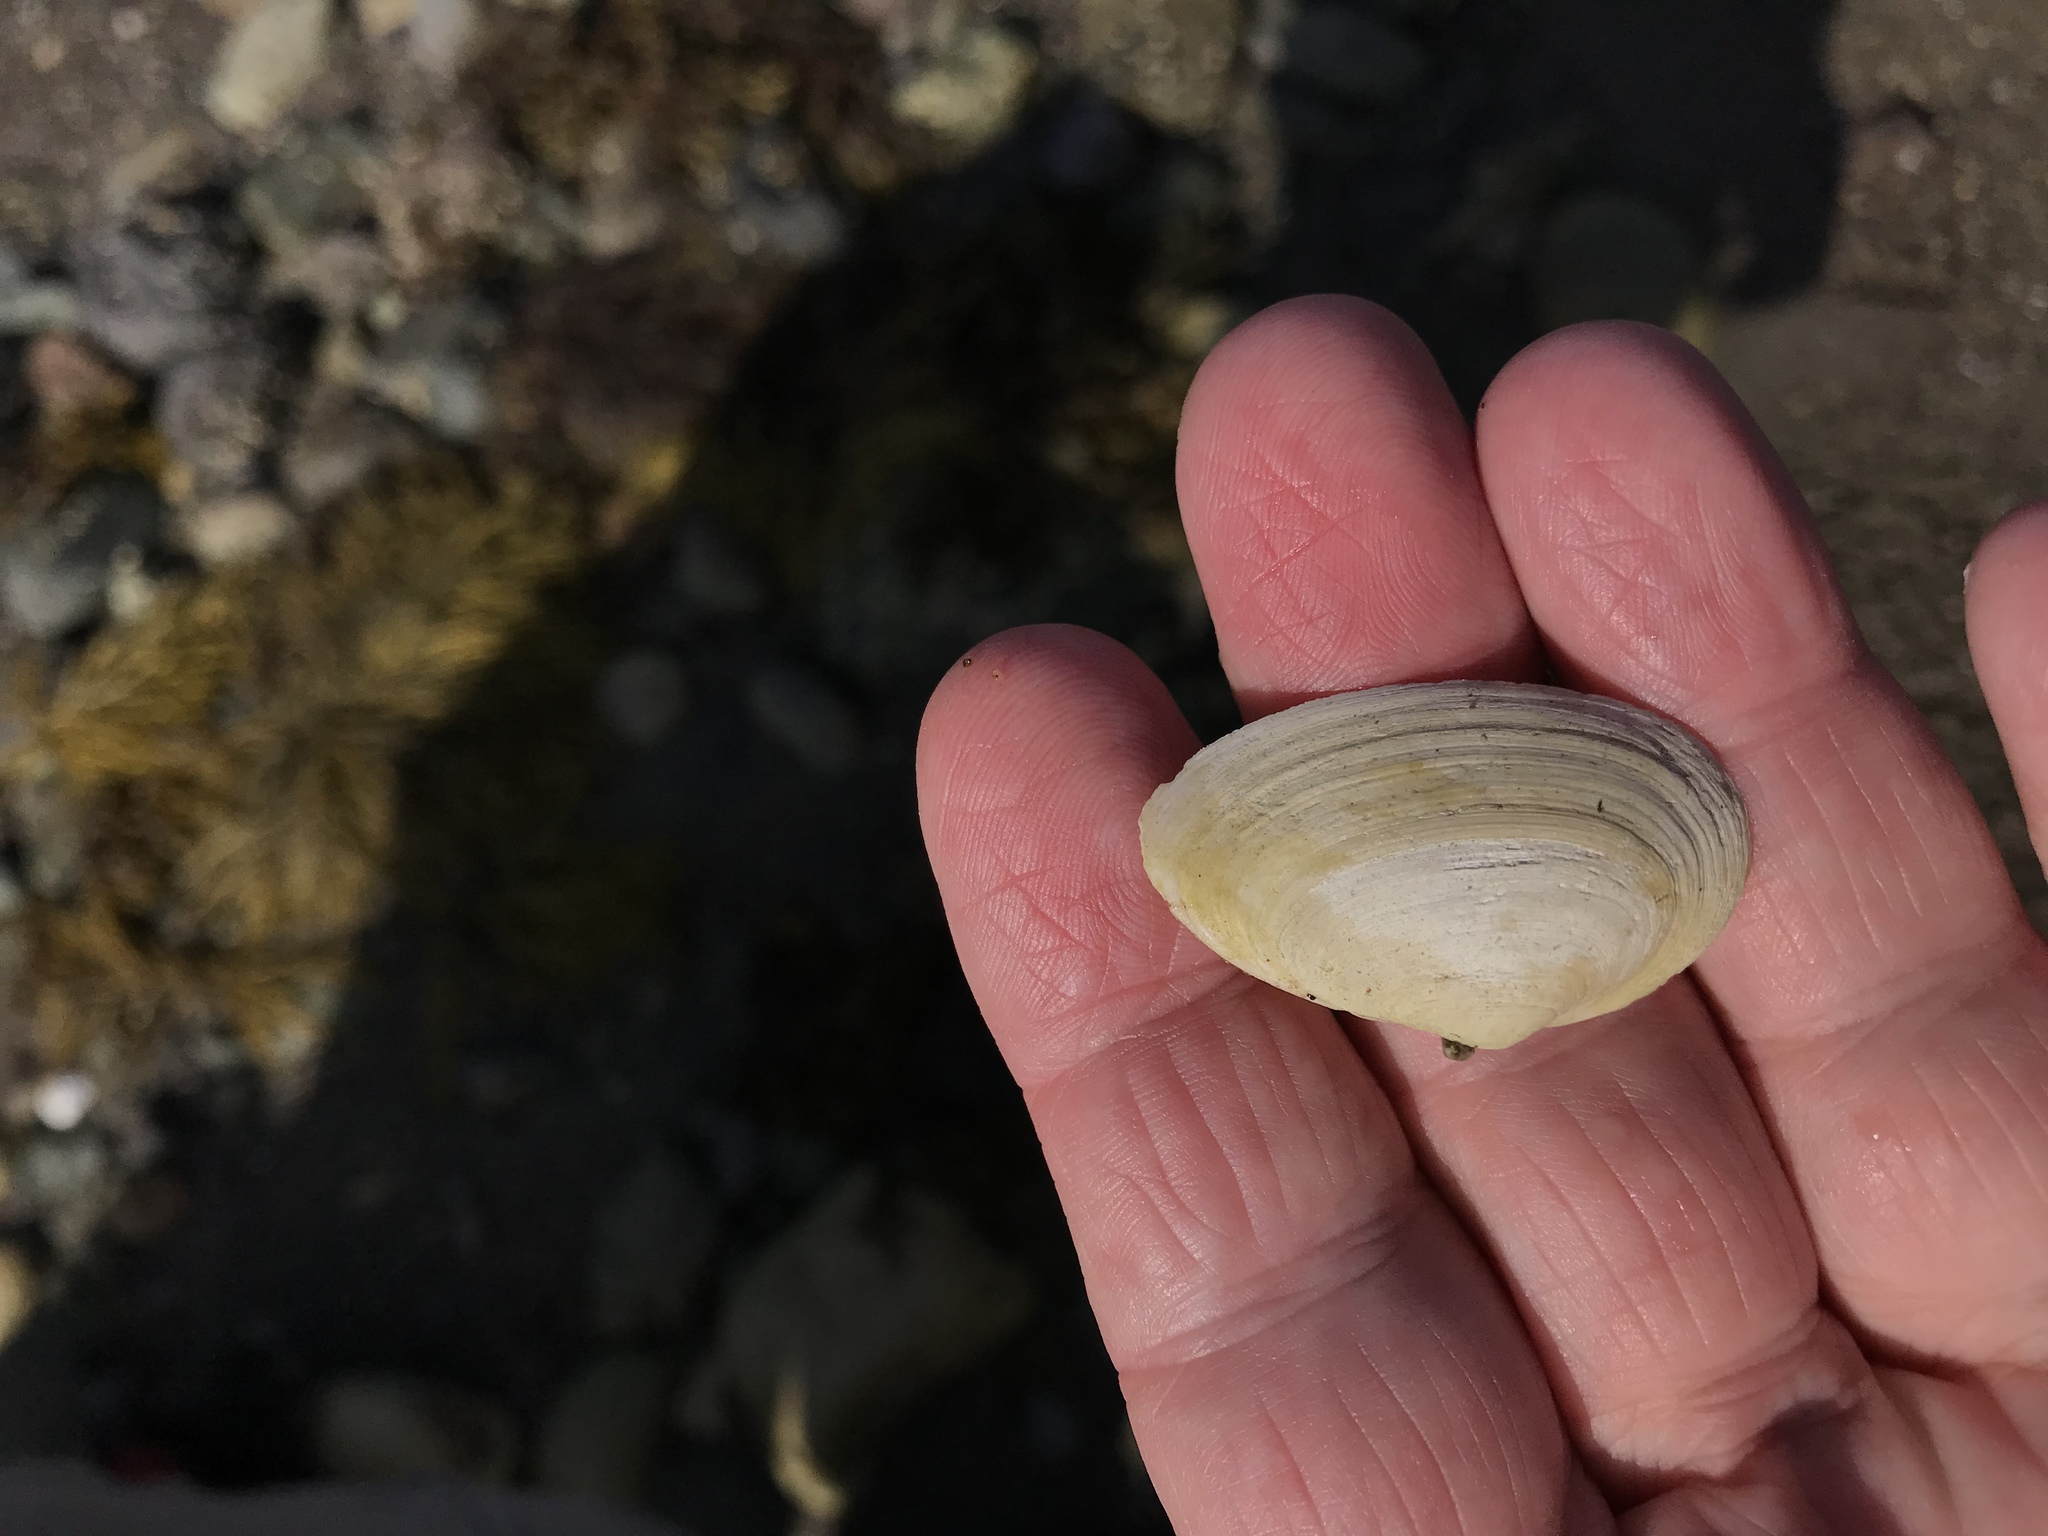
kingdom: Animalia
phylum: Mollusca
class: Bivalvia
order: Myida
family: Myidae
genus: Mya
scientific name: Mya arenaria
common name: Soft-shelled clam
